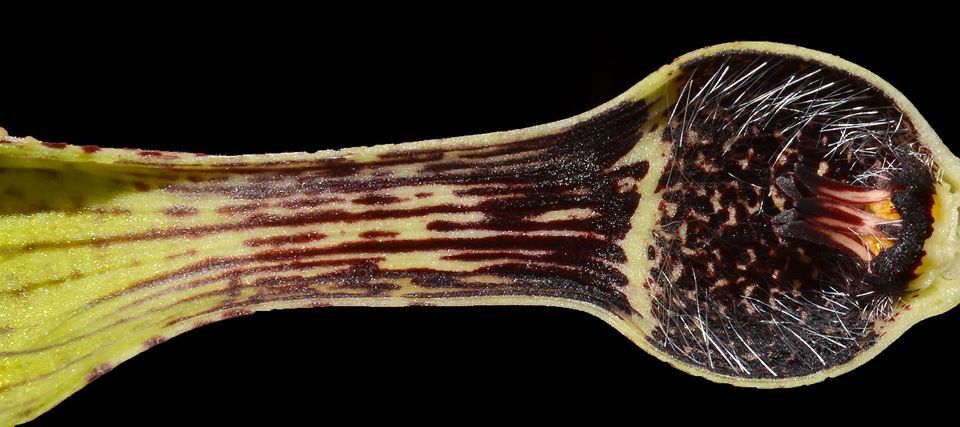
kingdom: Plantae
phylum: Tracheophyta
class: Magnoliopsida
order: Gentianales
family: Apocynaceae
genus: Ceropegia
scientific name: Ceropegia vincifolia
